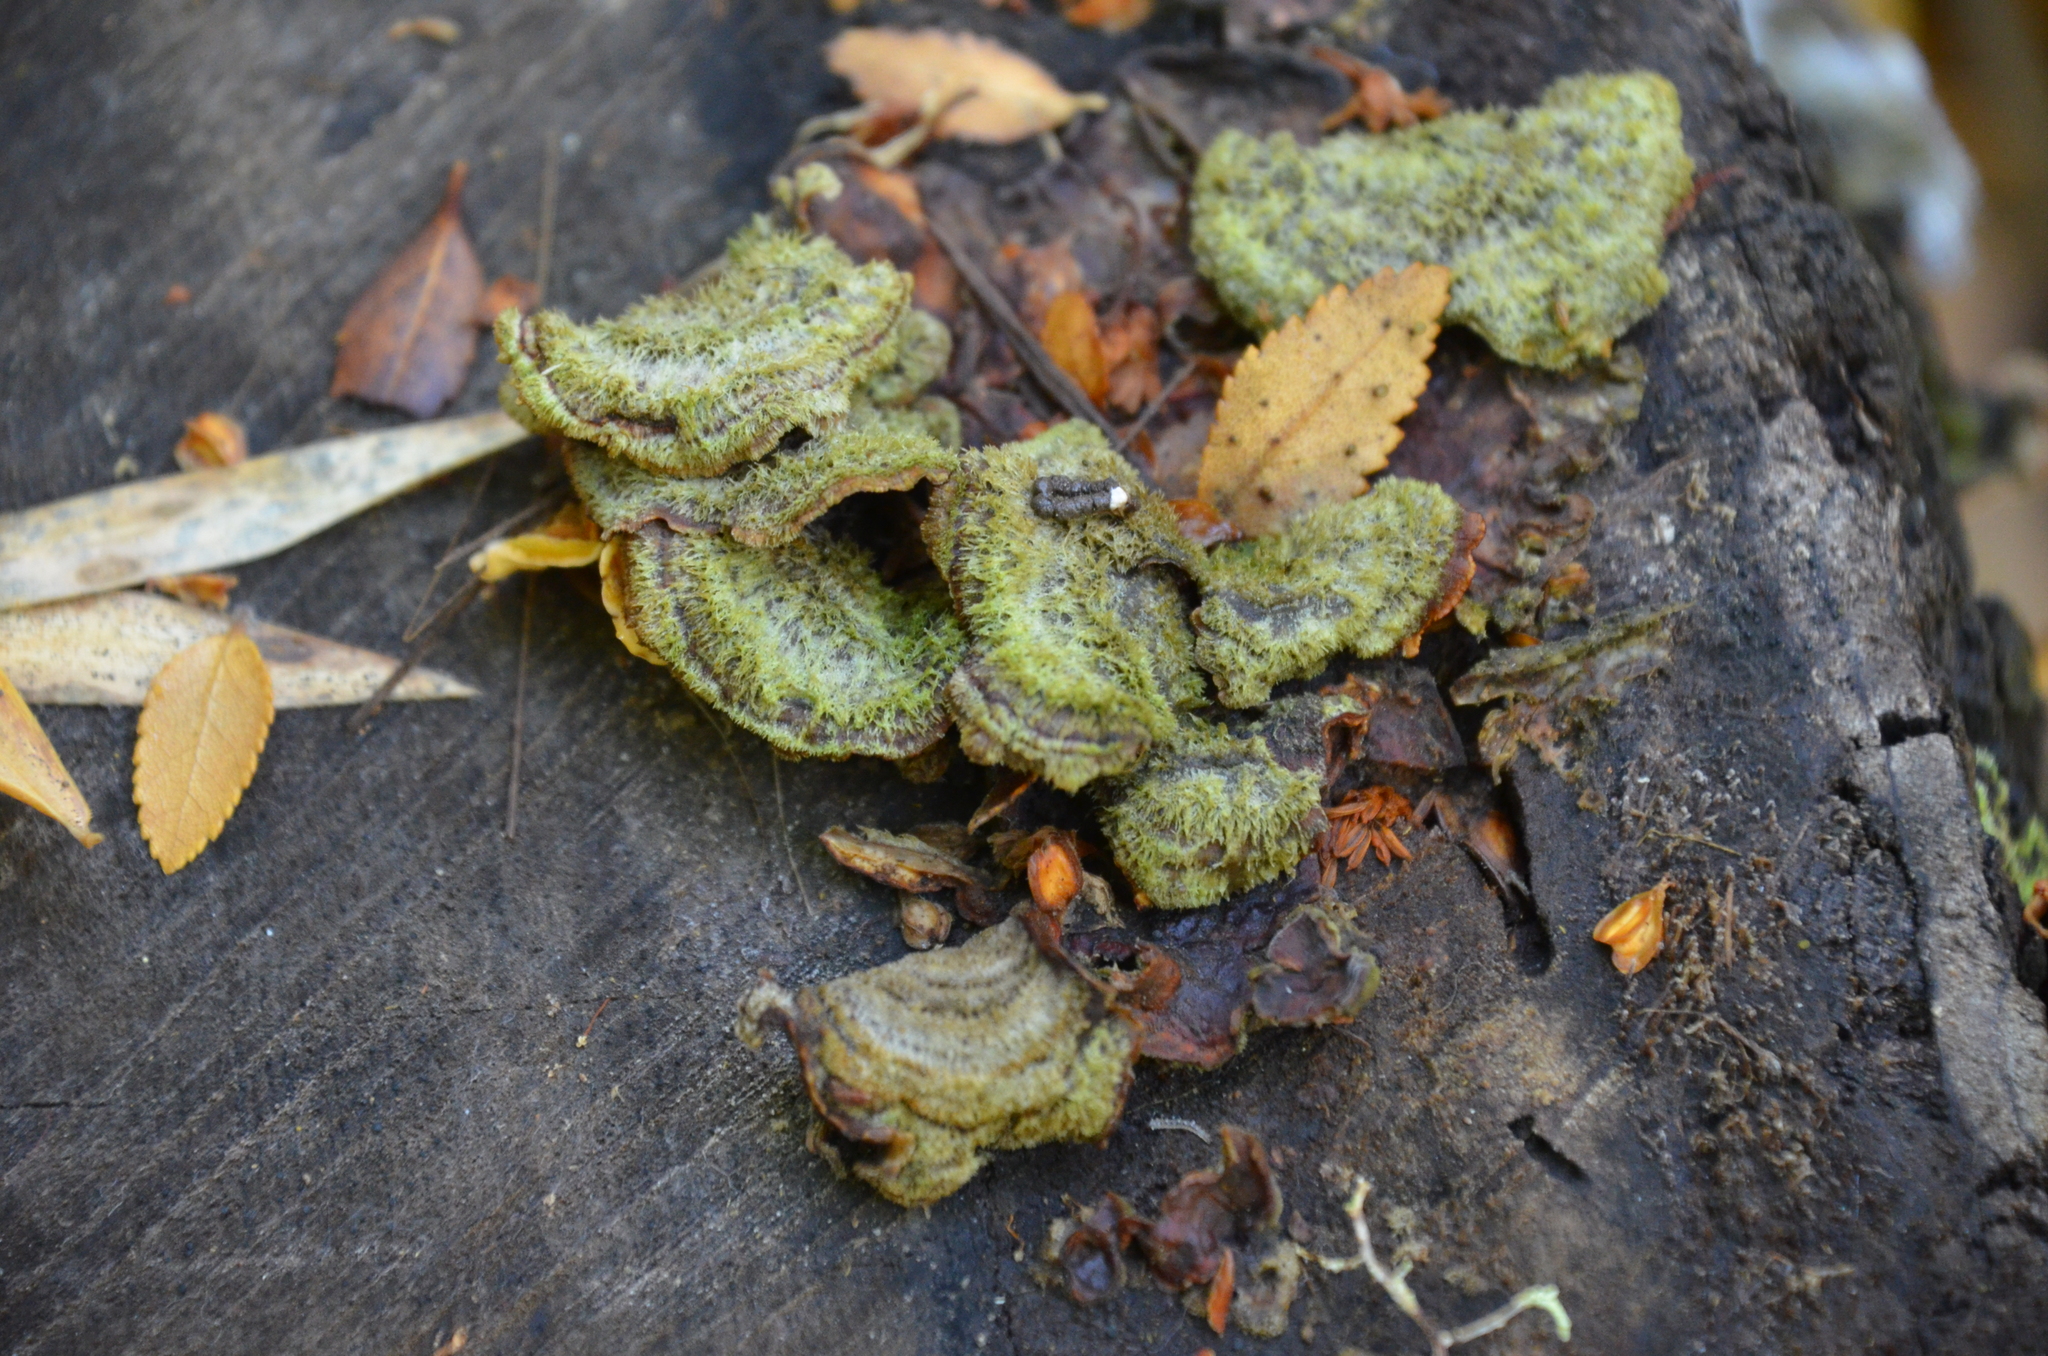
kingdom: Fungi
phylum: Basidiomycota
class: Agaricomycetes
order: Polyporales
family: Cerrenaceae
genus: Cerrena
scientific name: Cerrena unicolor
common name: Mossy maze polypore
